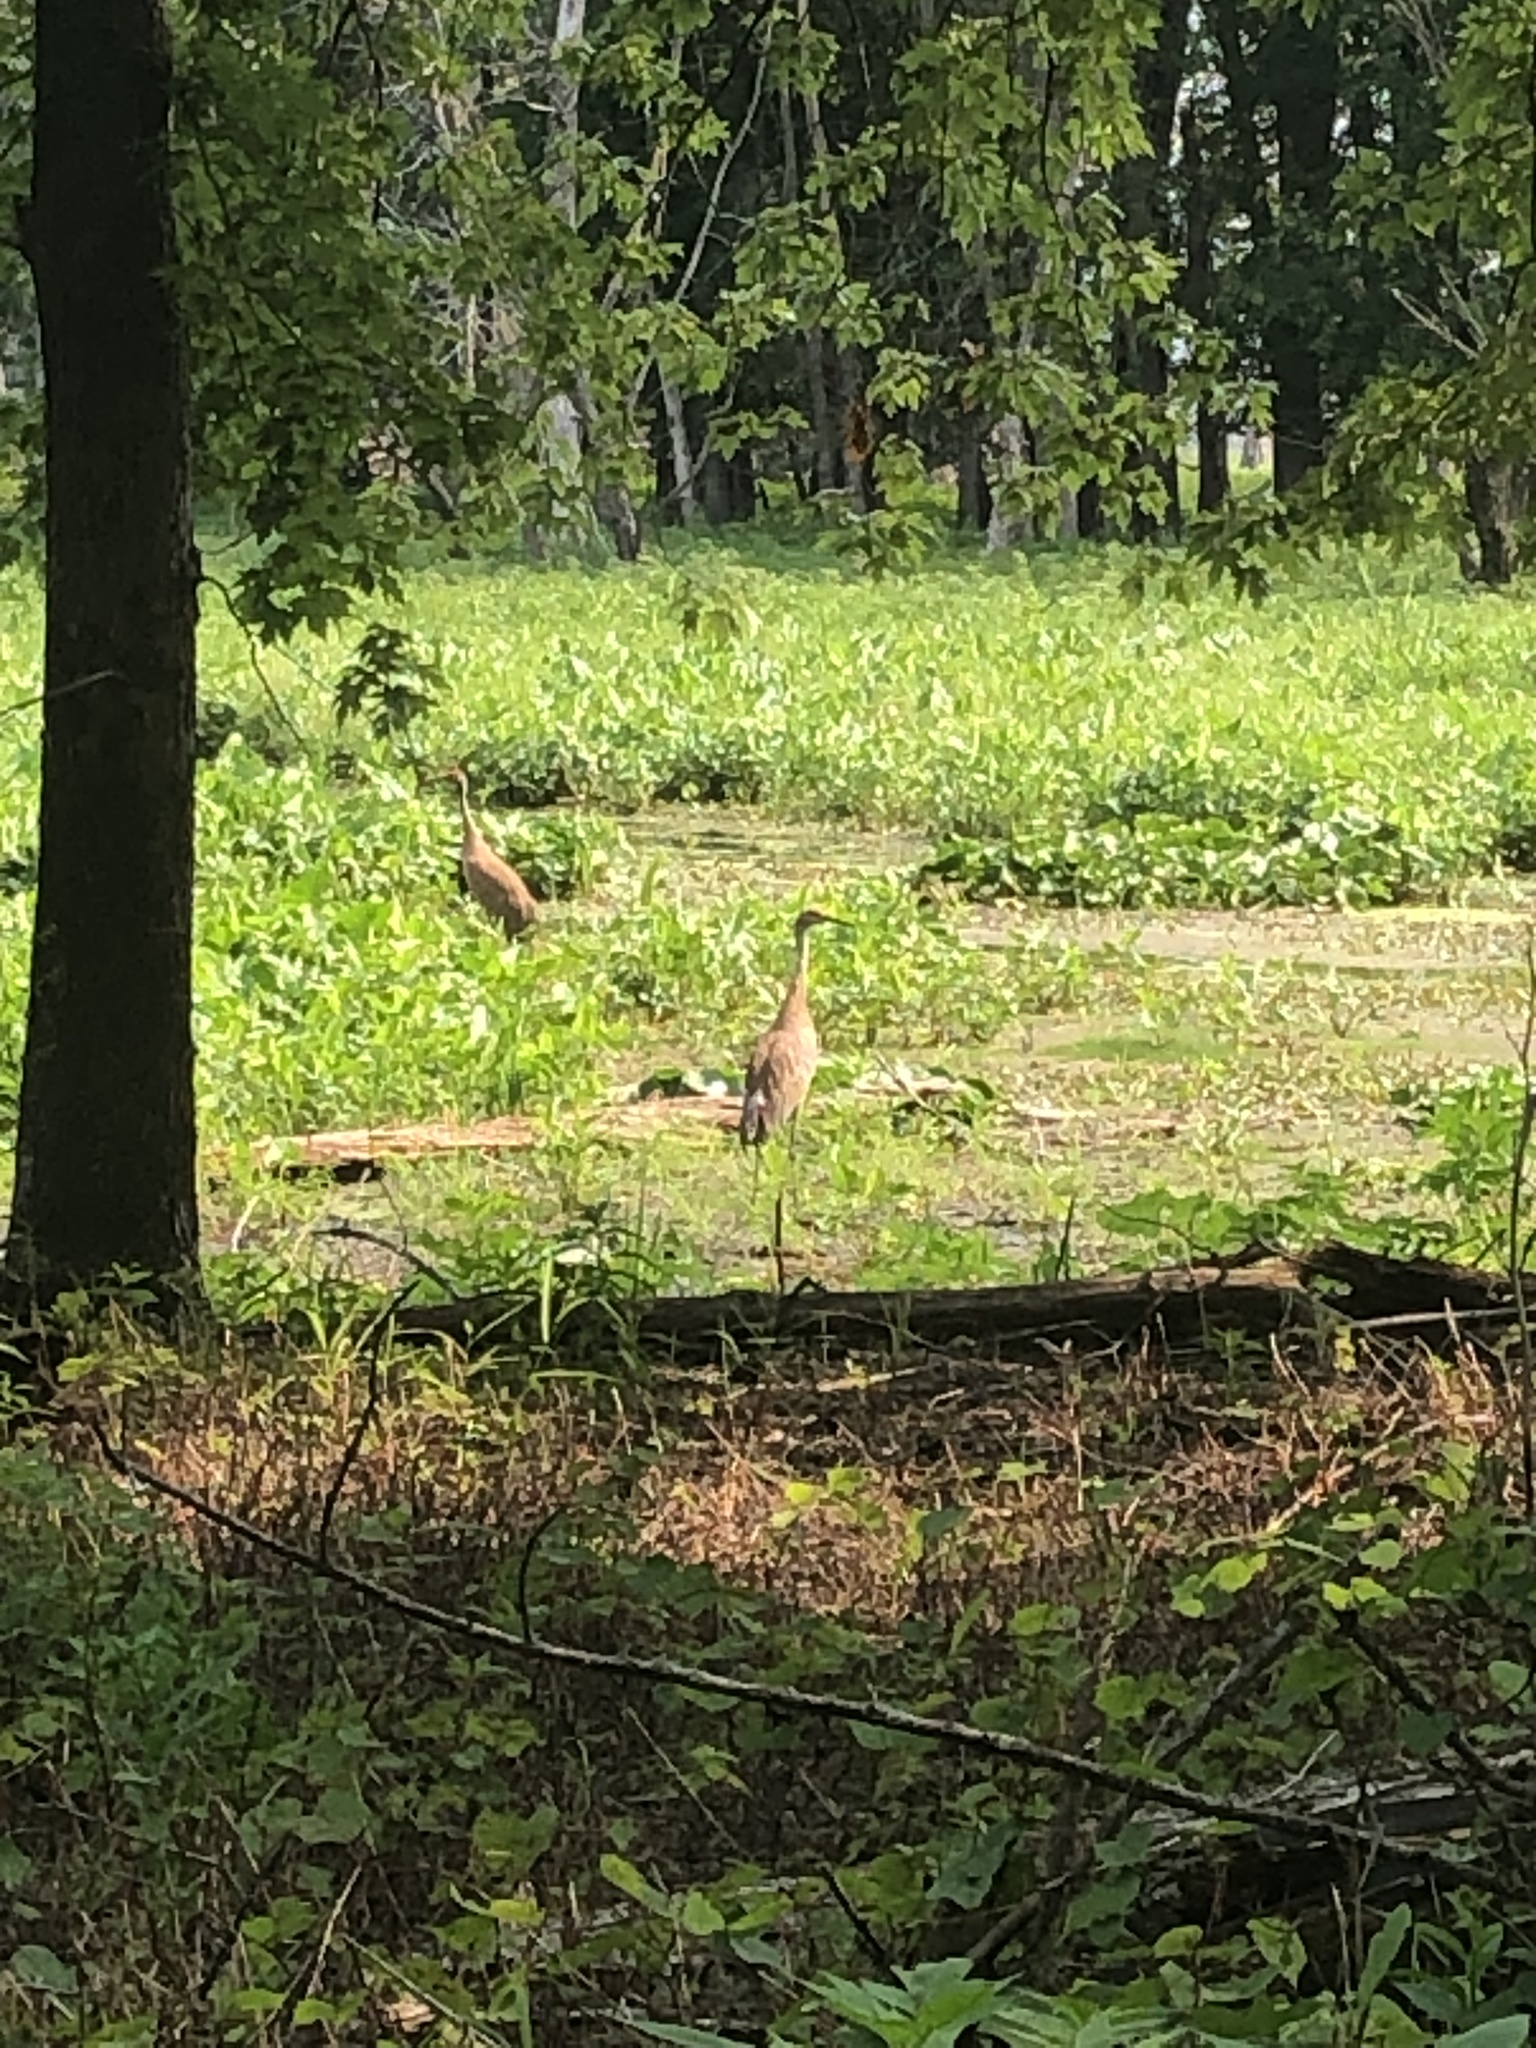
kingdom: Animalia
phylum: Chordata
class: Aves
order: Gruiformes
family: Gruidae
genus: Grus
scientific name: Grus canadensis
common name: Sandhill crane
